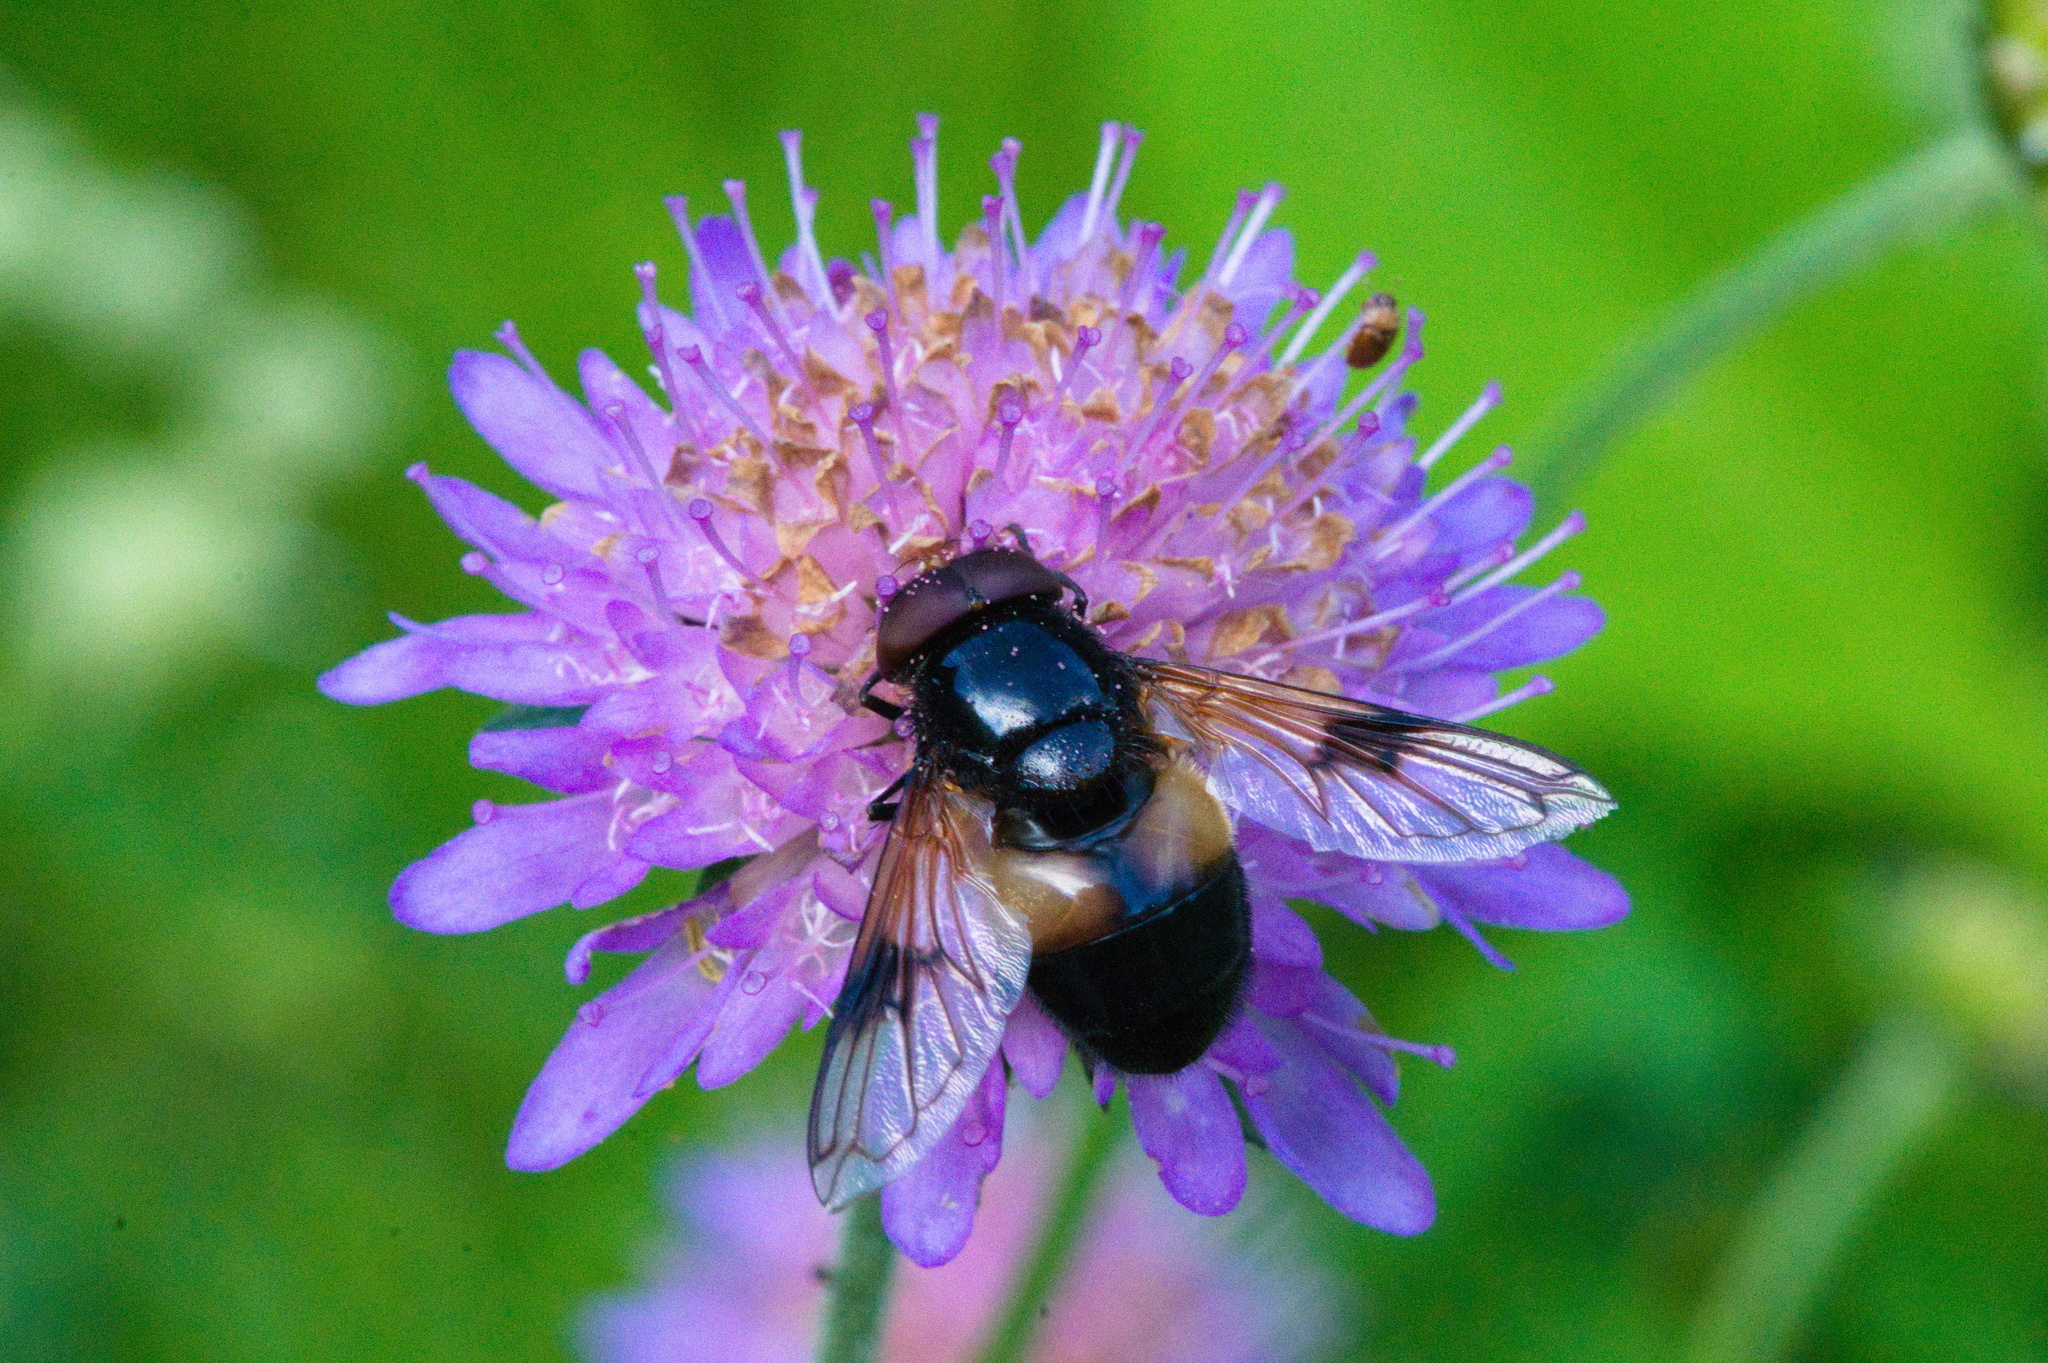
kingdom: Animalia
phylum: Arthropoda
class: Insecta
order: Diptera
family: Syrphidae
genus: Volucella
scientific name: Volucella pellucens
